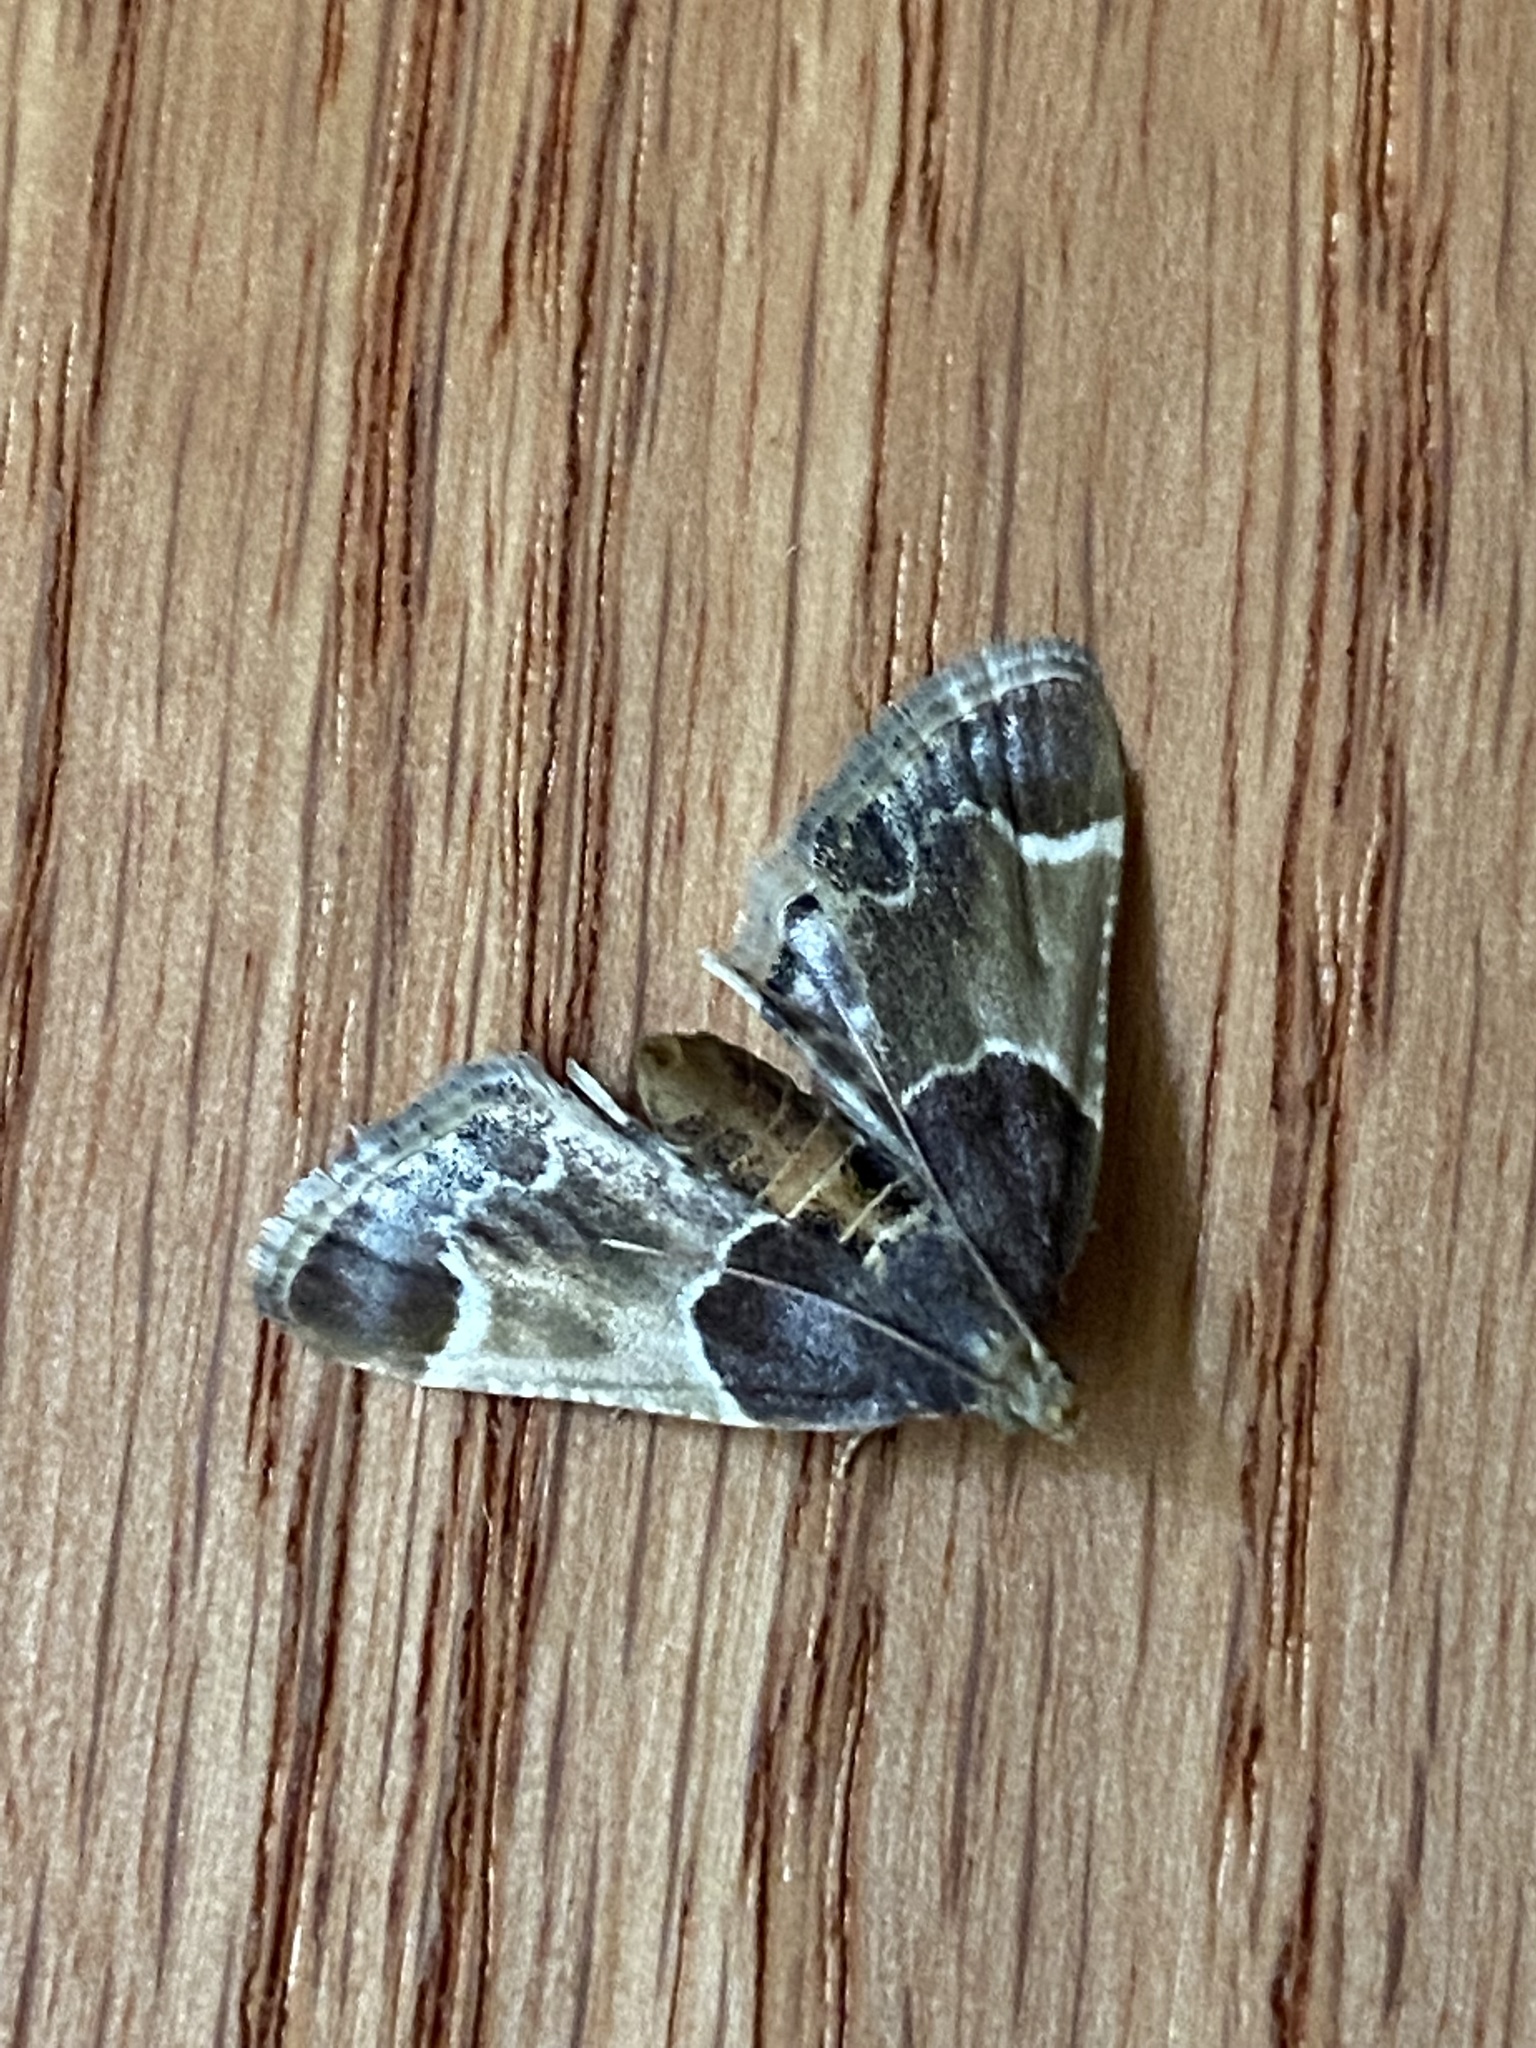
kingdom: Animalia
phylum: Arthropoda
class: Insecta
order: Lepidoptera
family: Pyralidae
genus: Pyralis
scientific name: Pyralis farinalis
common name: Meal moth
